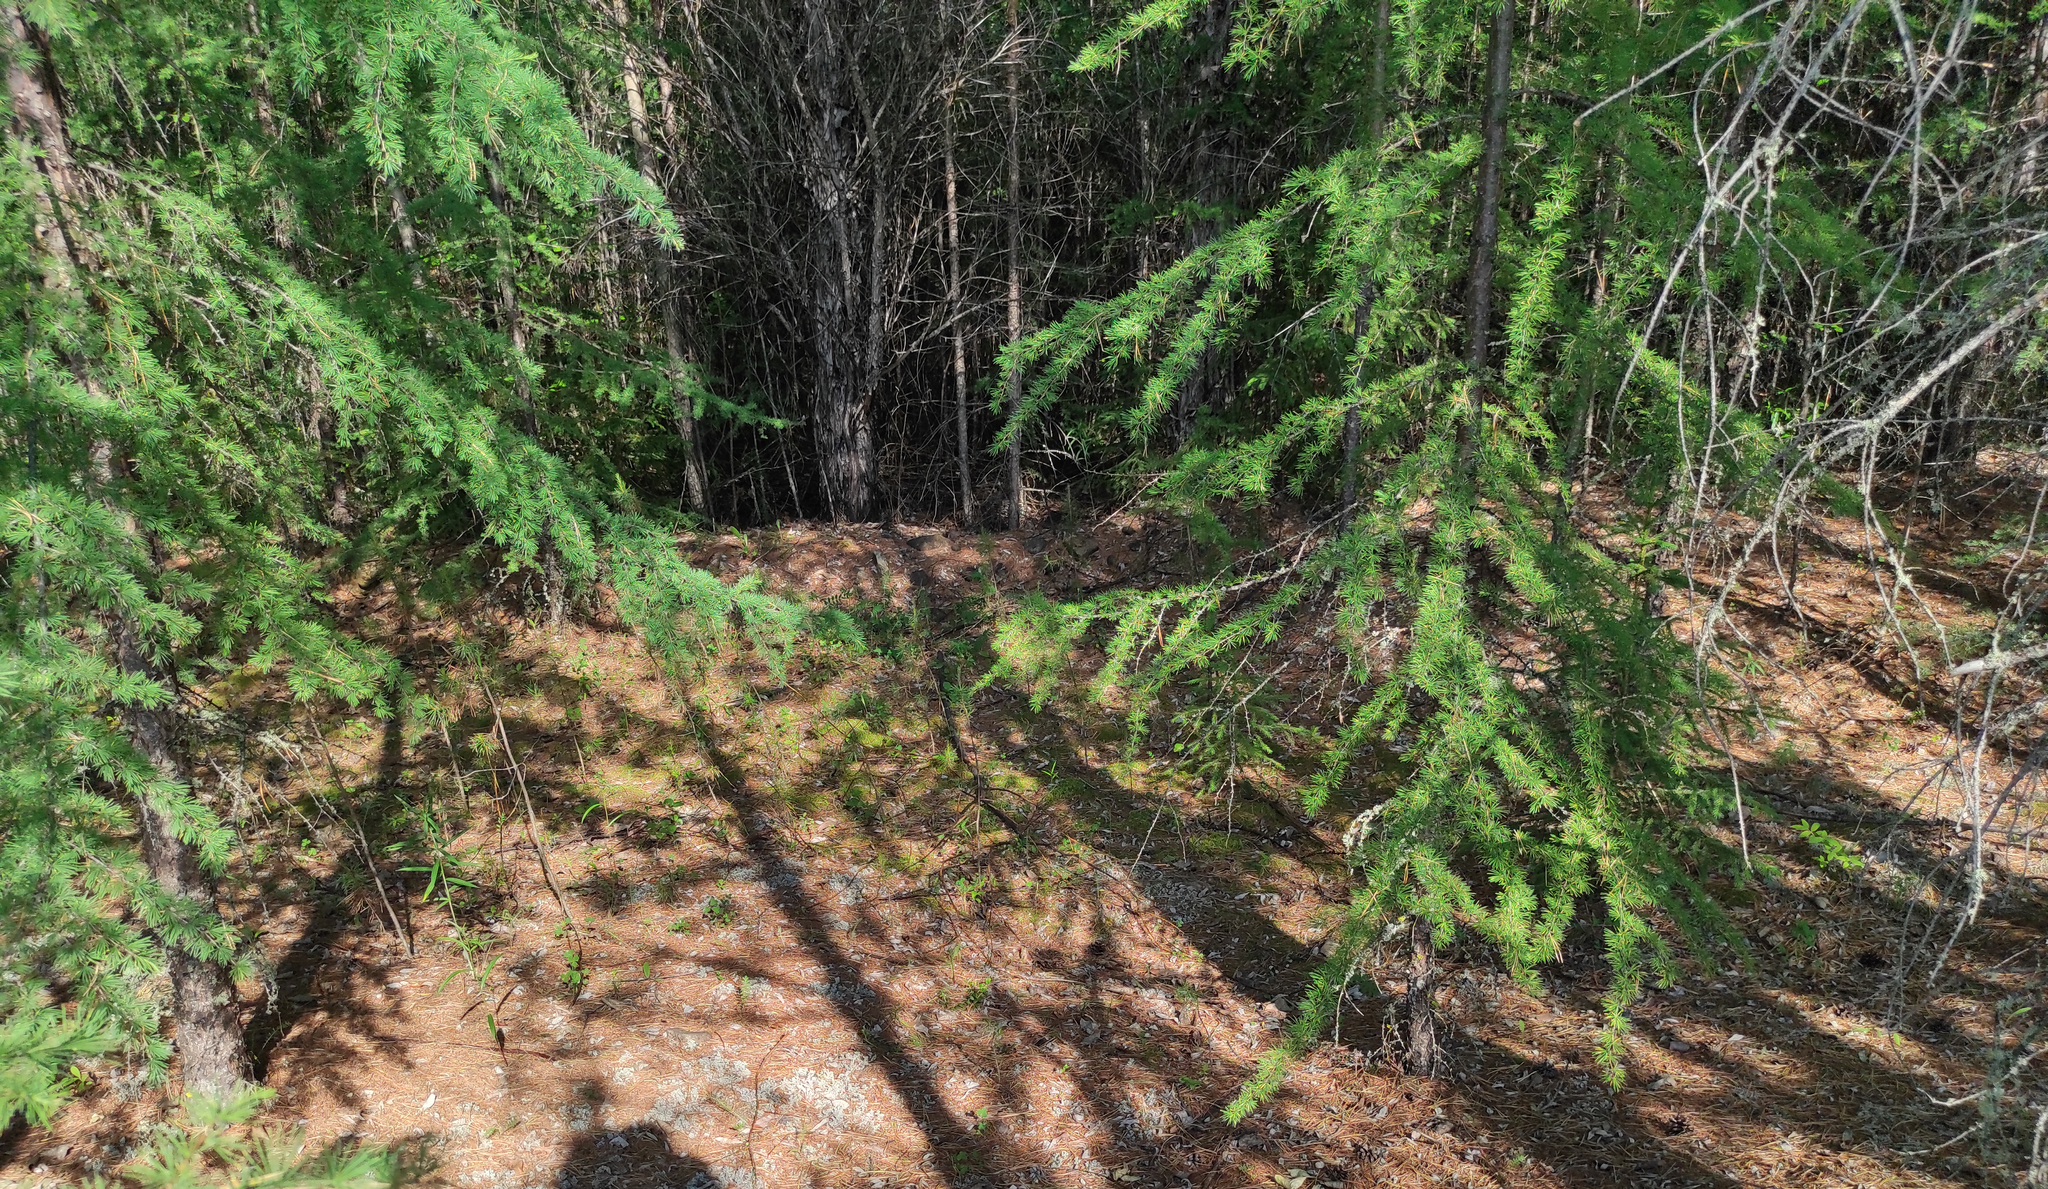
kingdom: Plantae
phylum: Tracheophyta
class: Pinopsida
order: Pinales
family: Pinaceae
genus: Larix
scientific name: Larix gmelinii
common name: Dahurian larch
